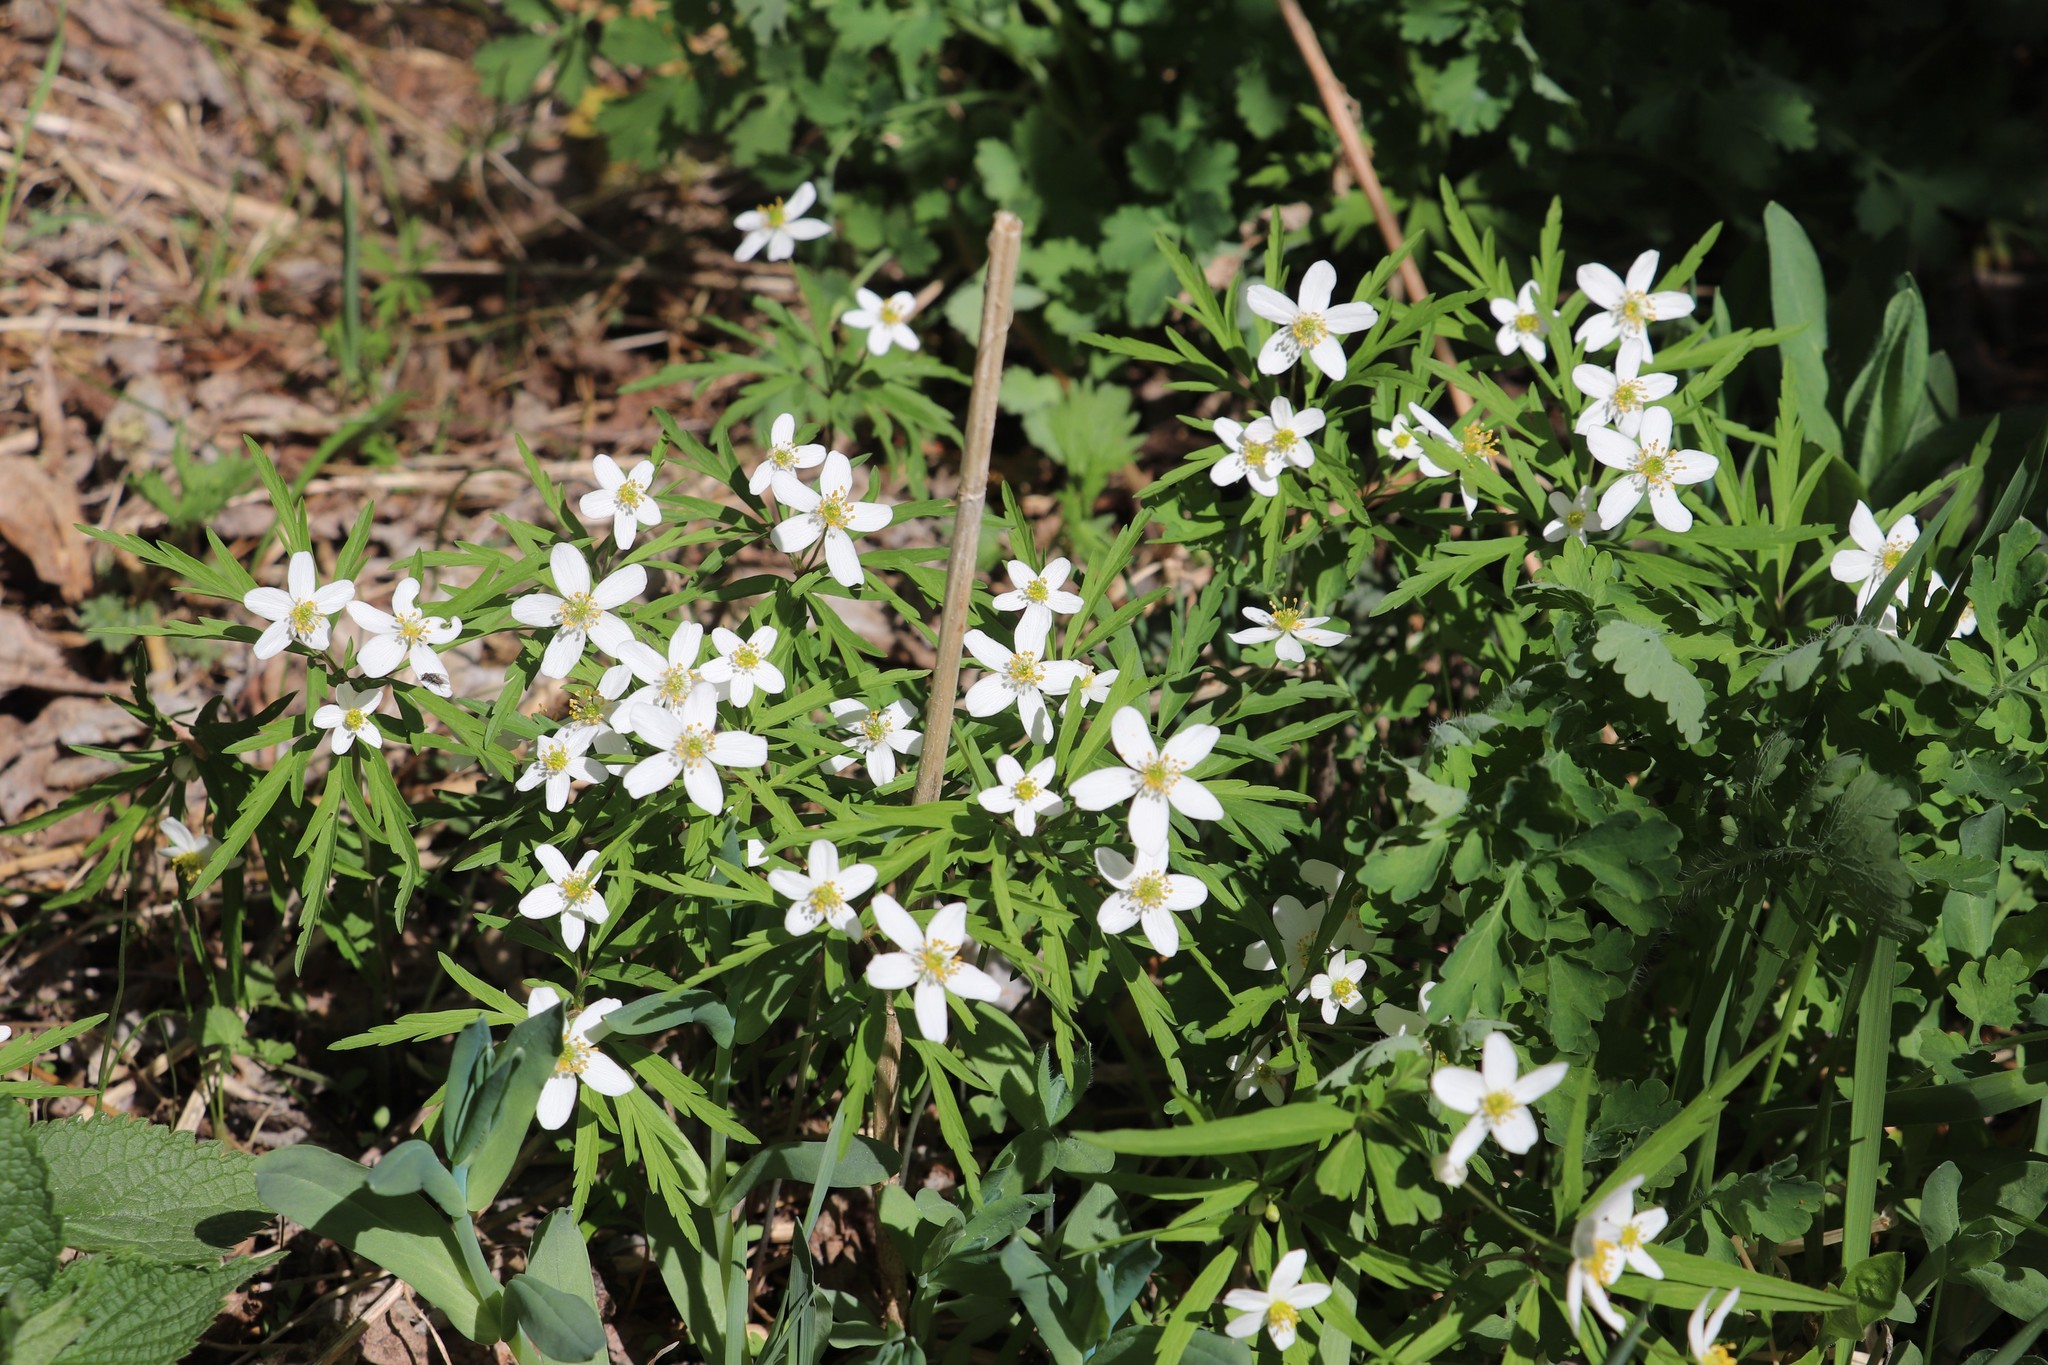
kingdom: Plantae
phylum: Tracheophyta
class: Magnoliopsida
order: Ranunculales
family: Ranunculaceae
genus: Anemone
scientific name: Anemone caerulea
